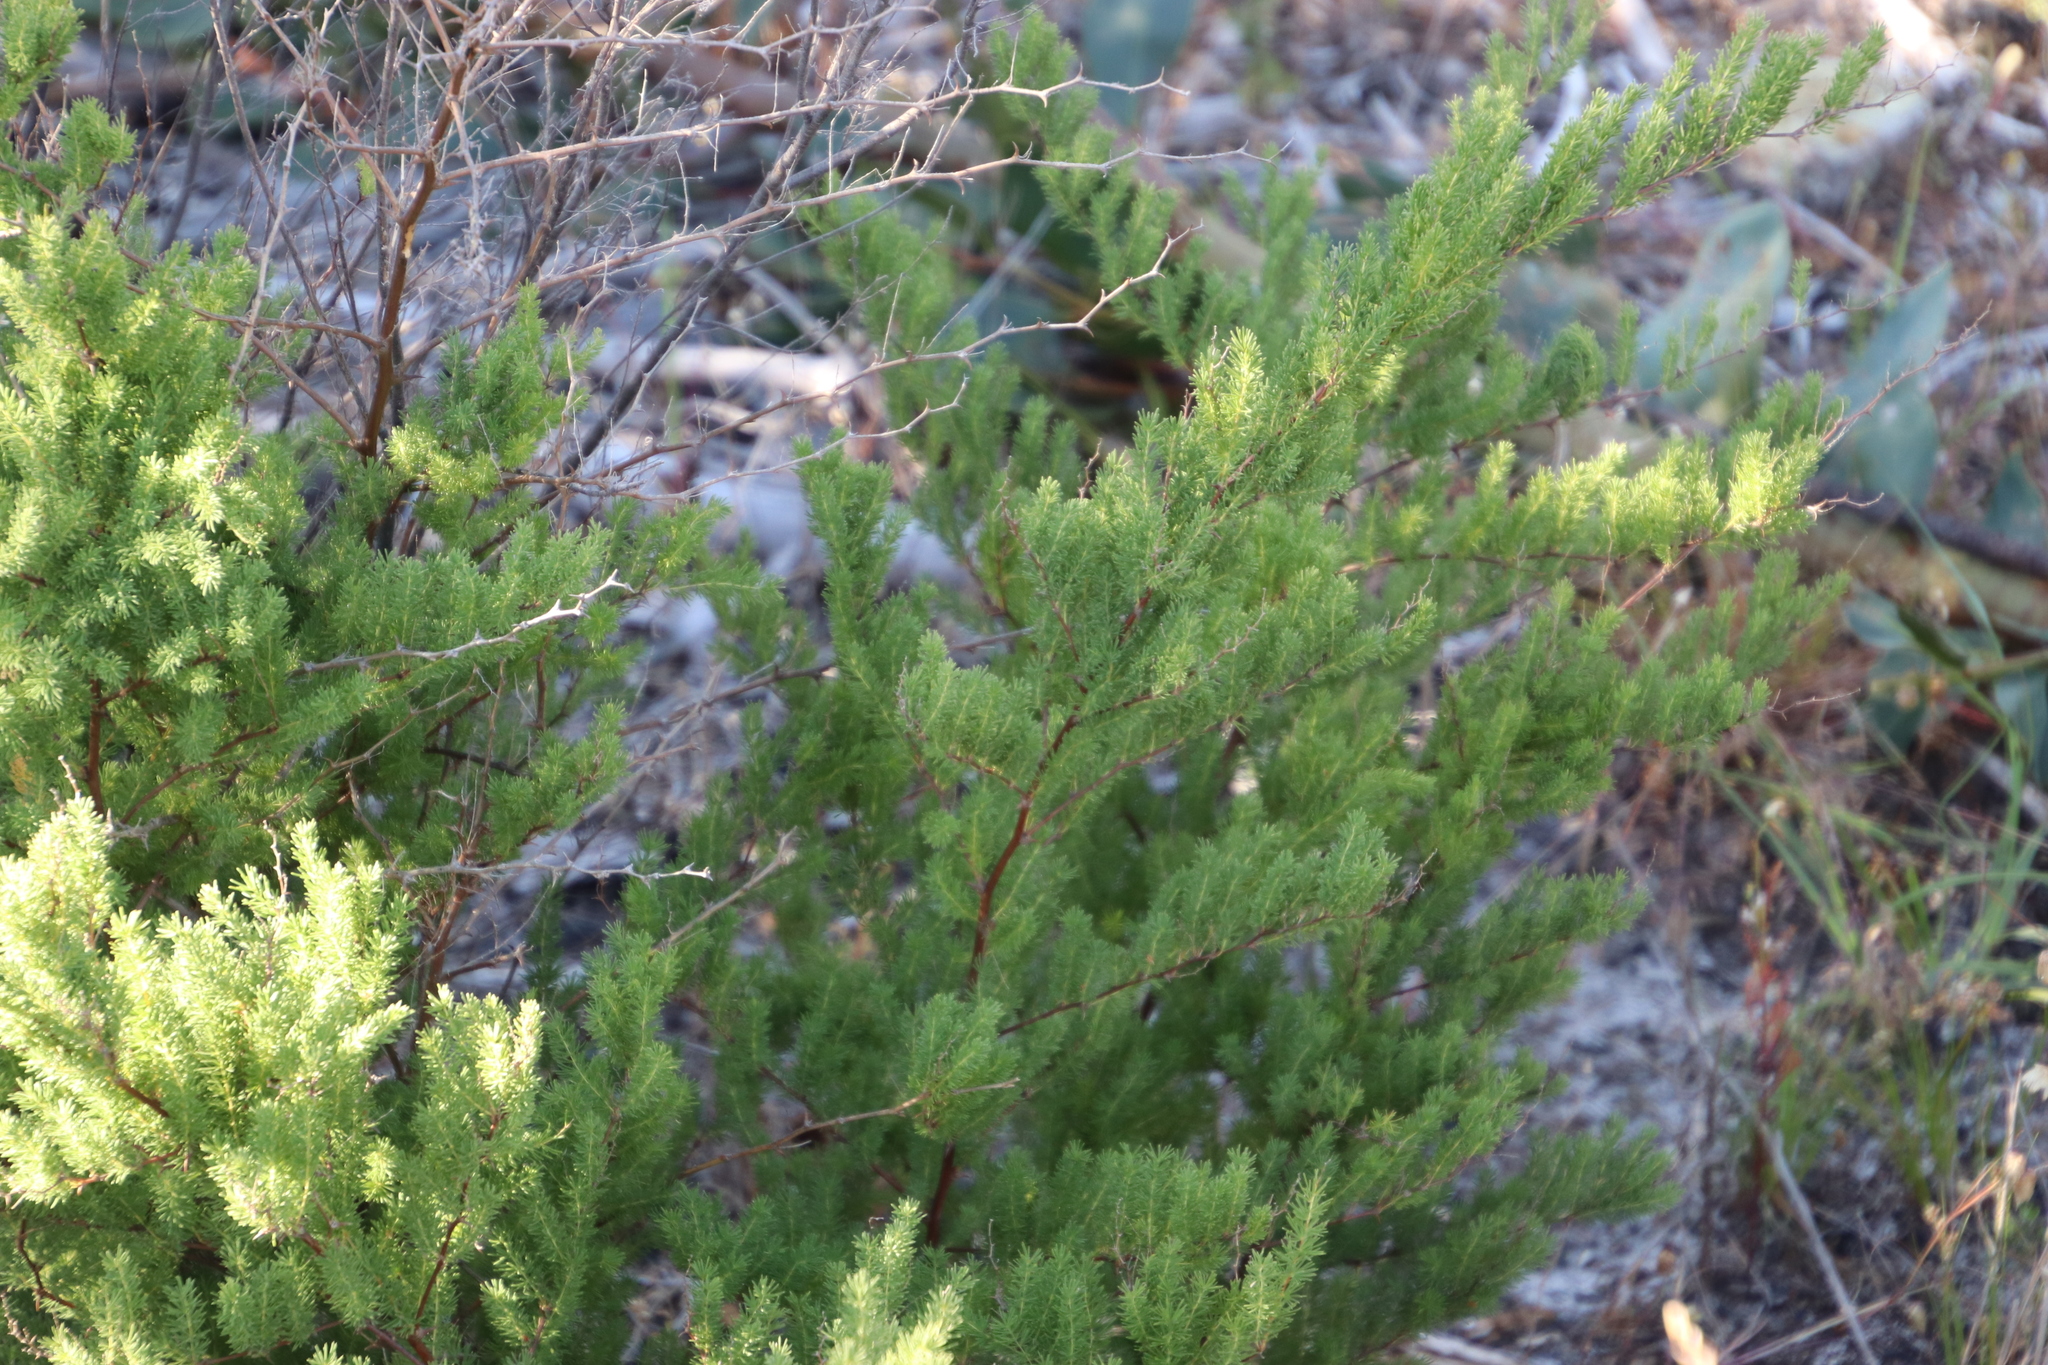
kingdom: Plantae
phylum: Tracheophyta
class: Liliopsida
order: Asparagales
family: Asparagaceae
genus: Asparagus
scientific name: Asparagus rubicundus
